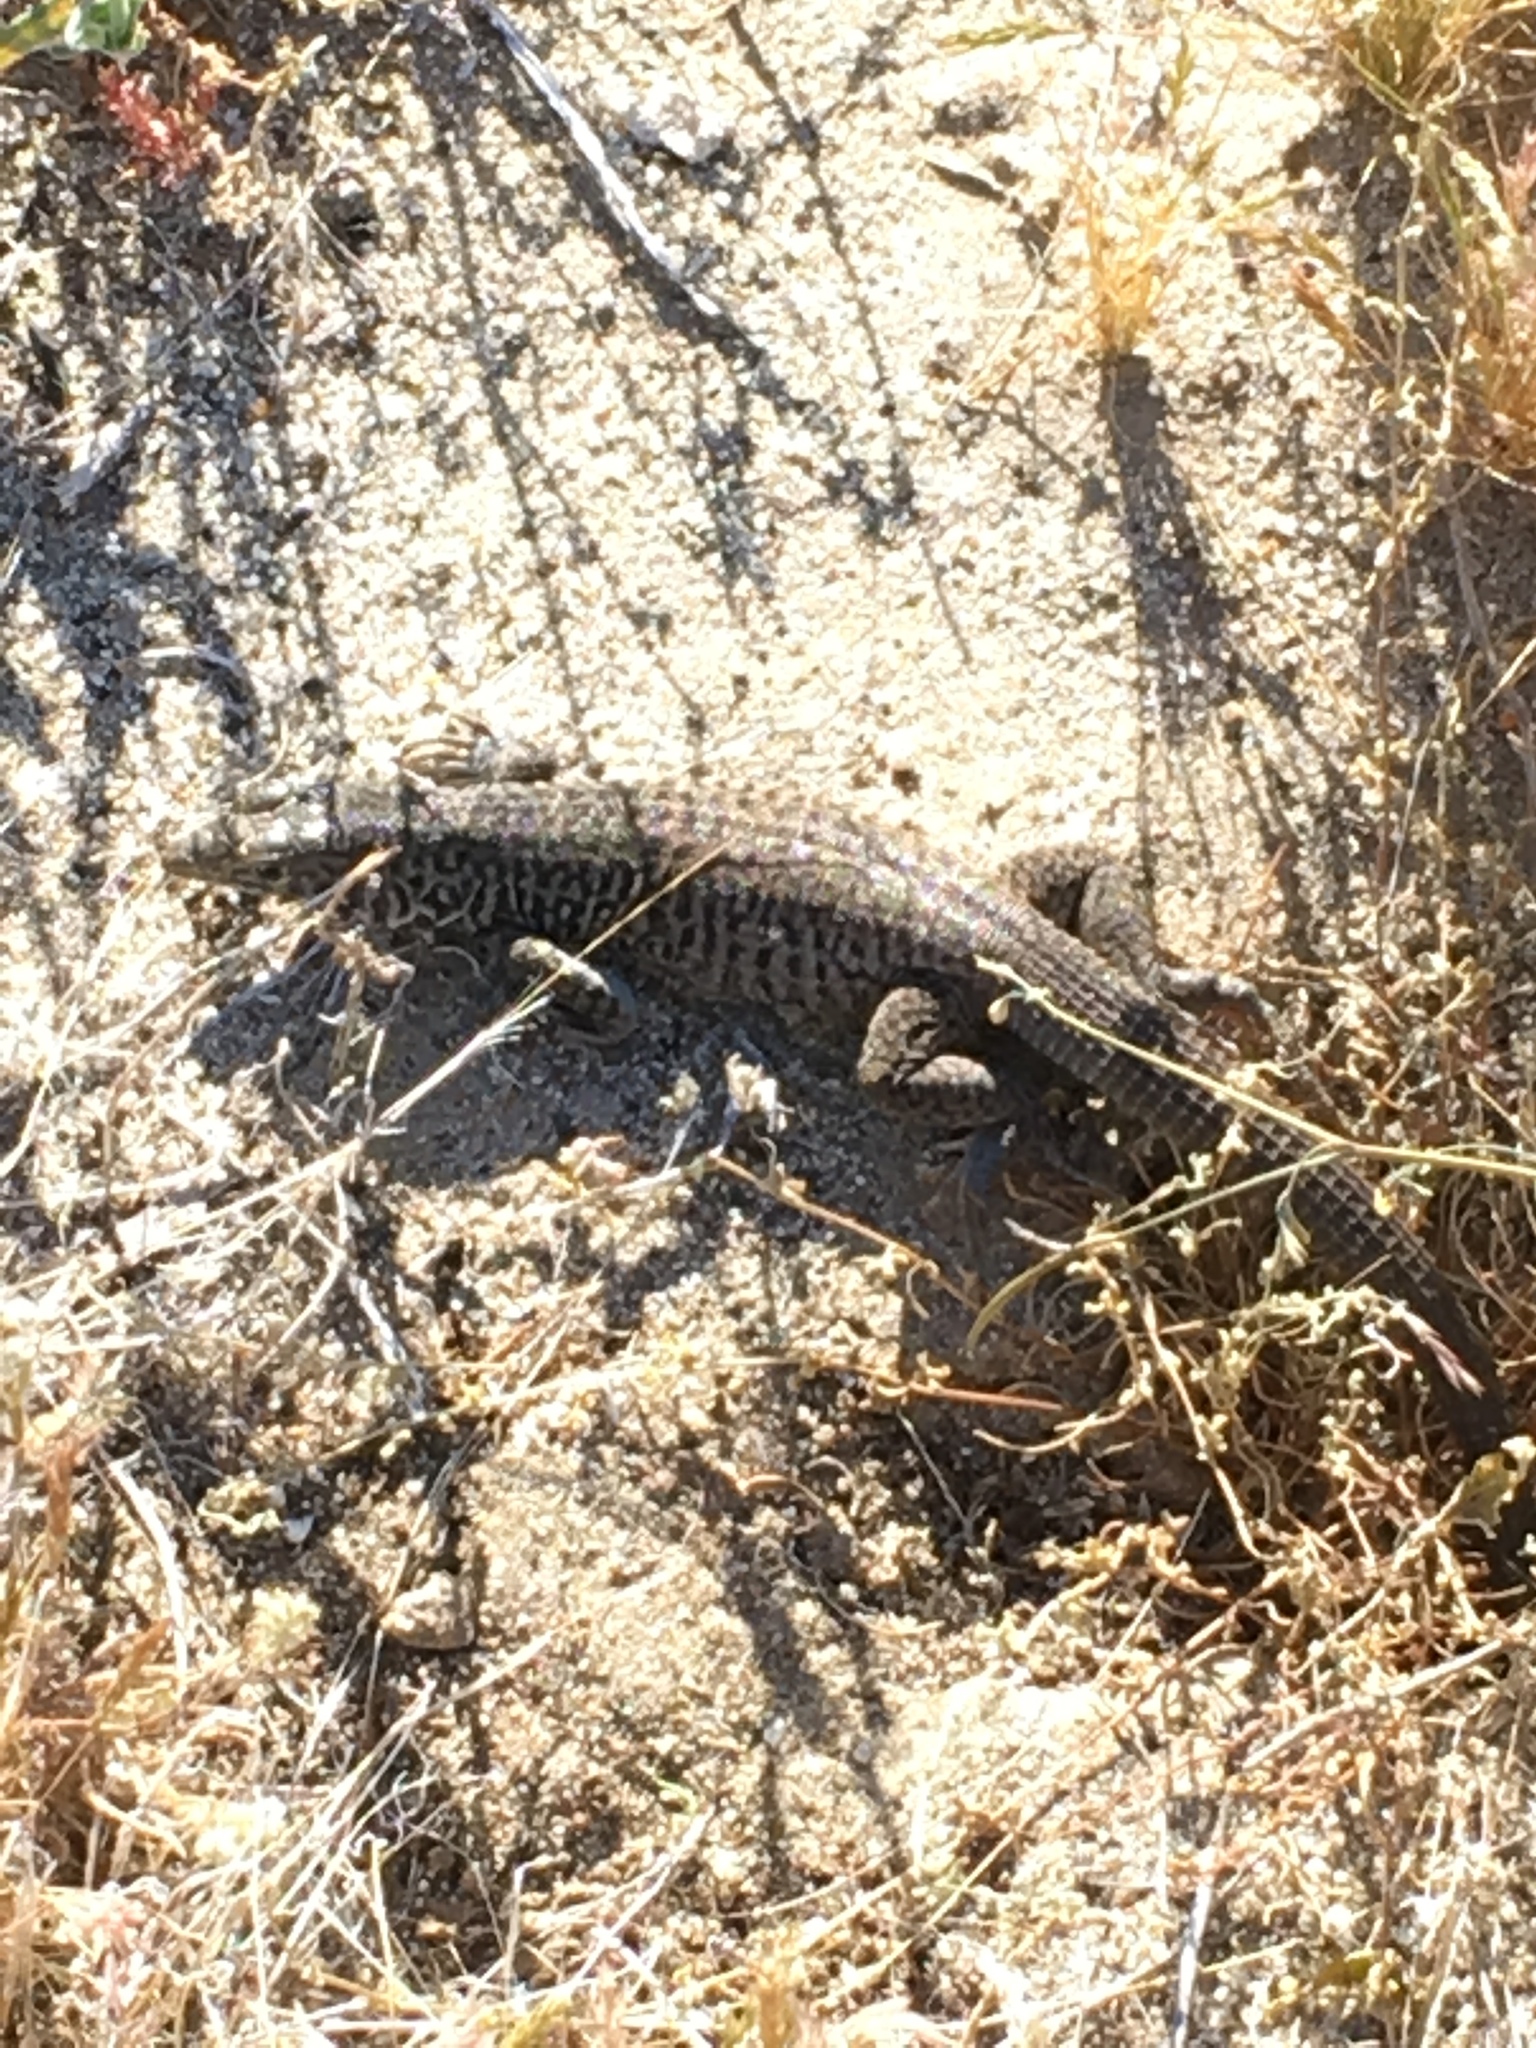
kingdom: Animalia
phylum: Chordata
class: Squamata
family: Teiidae
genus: Aspidoscelis
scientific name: Aspidoscelis tigris
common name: Tiger whiptail
